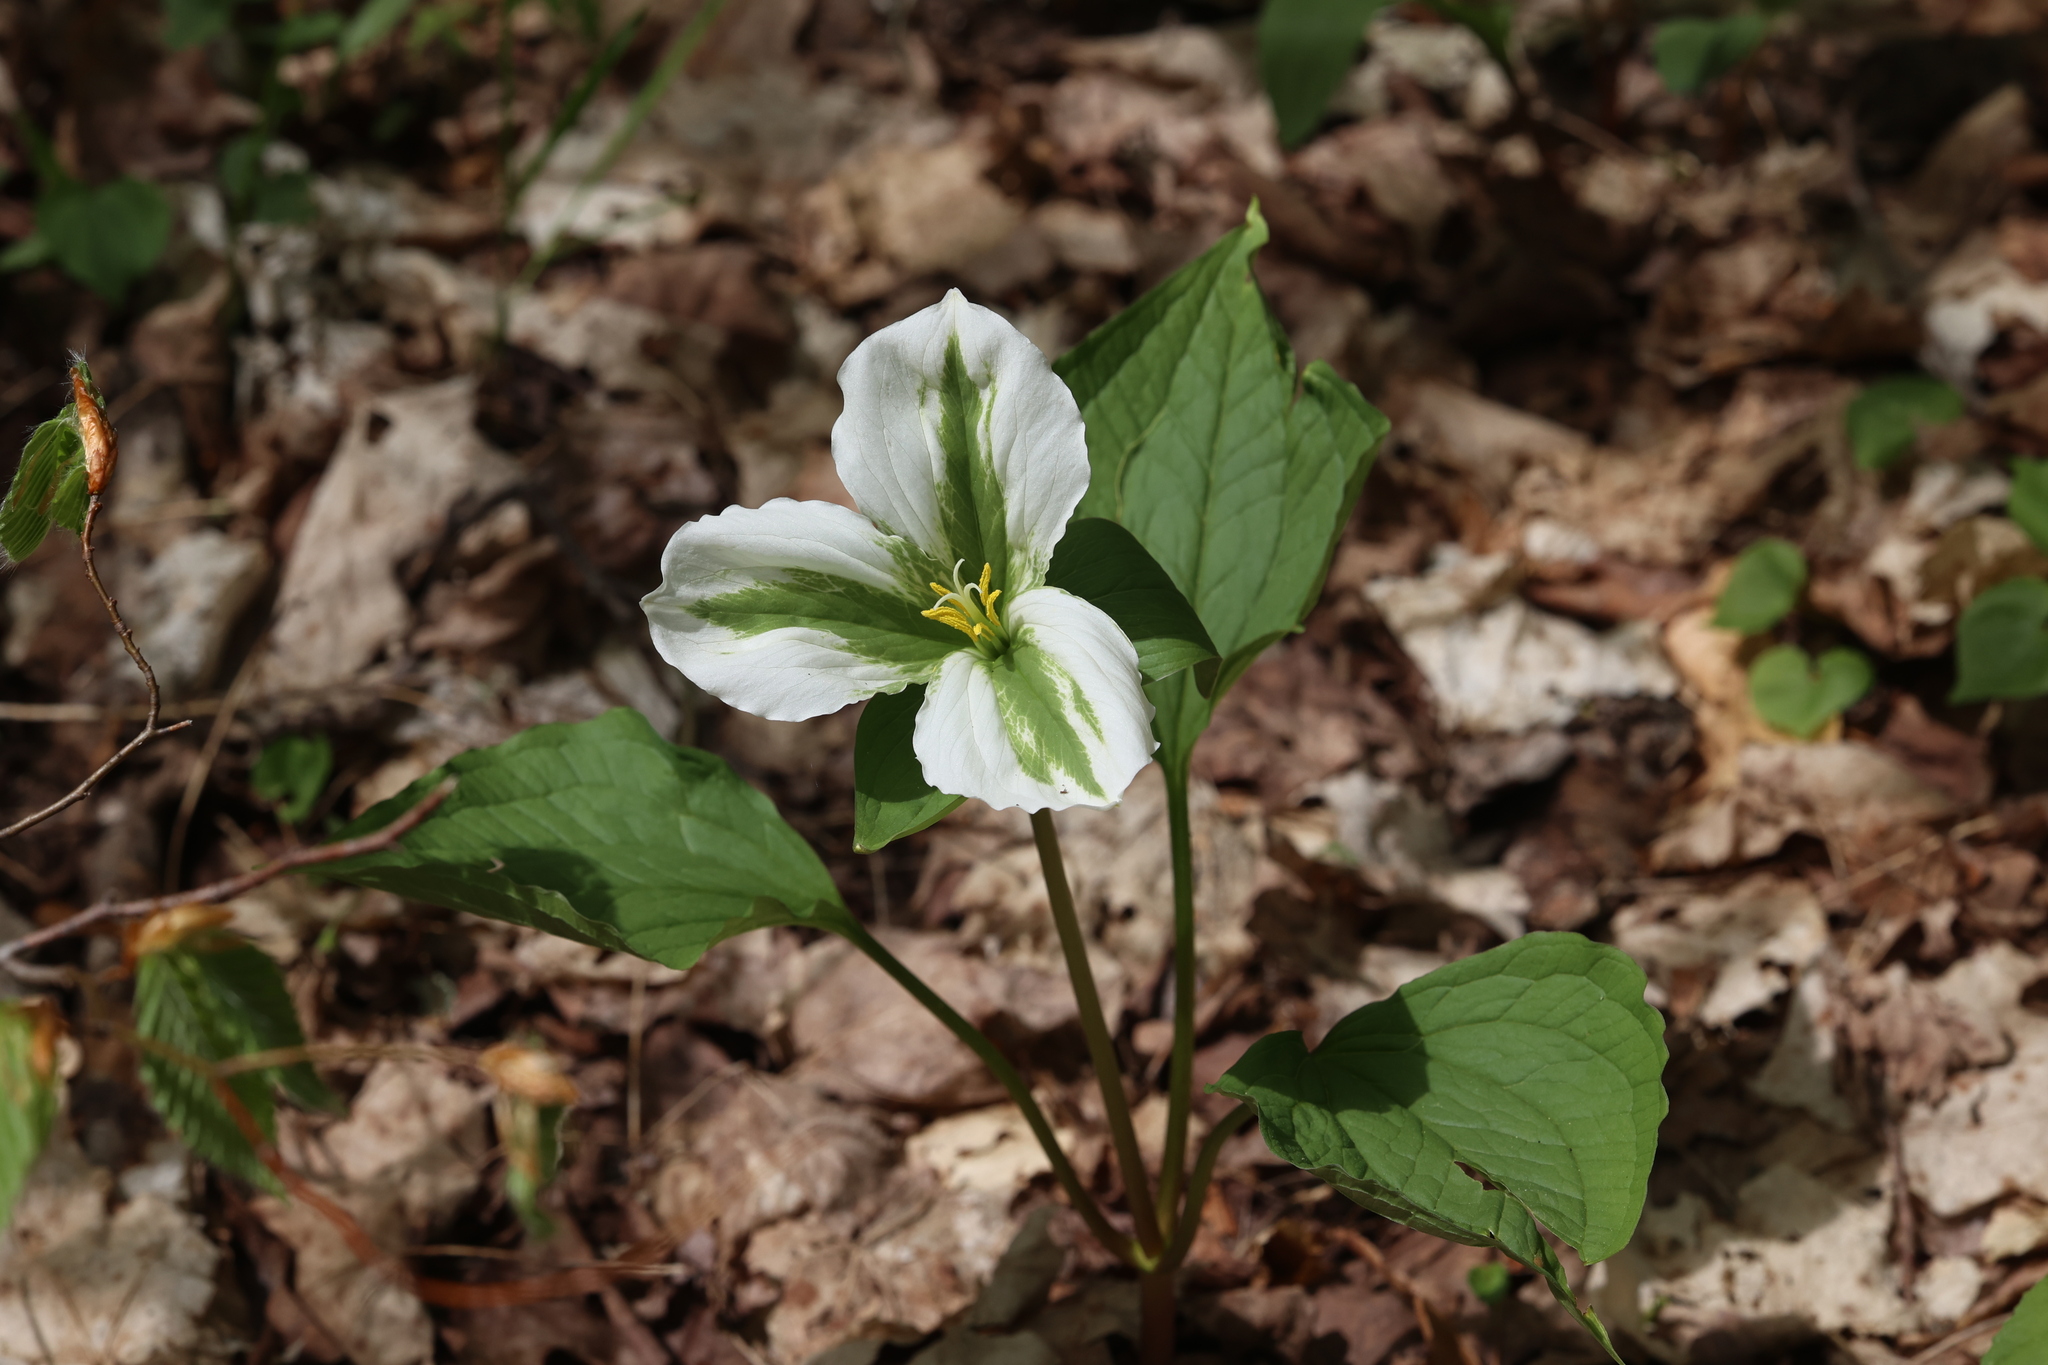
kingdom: Plantae
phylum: Tracheophyta
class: Liliopsida
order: Liliales
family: Melanthiaceae
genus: Trillium
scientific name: Trillium grandiflorum
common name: Great white trillium
